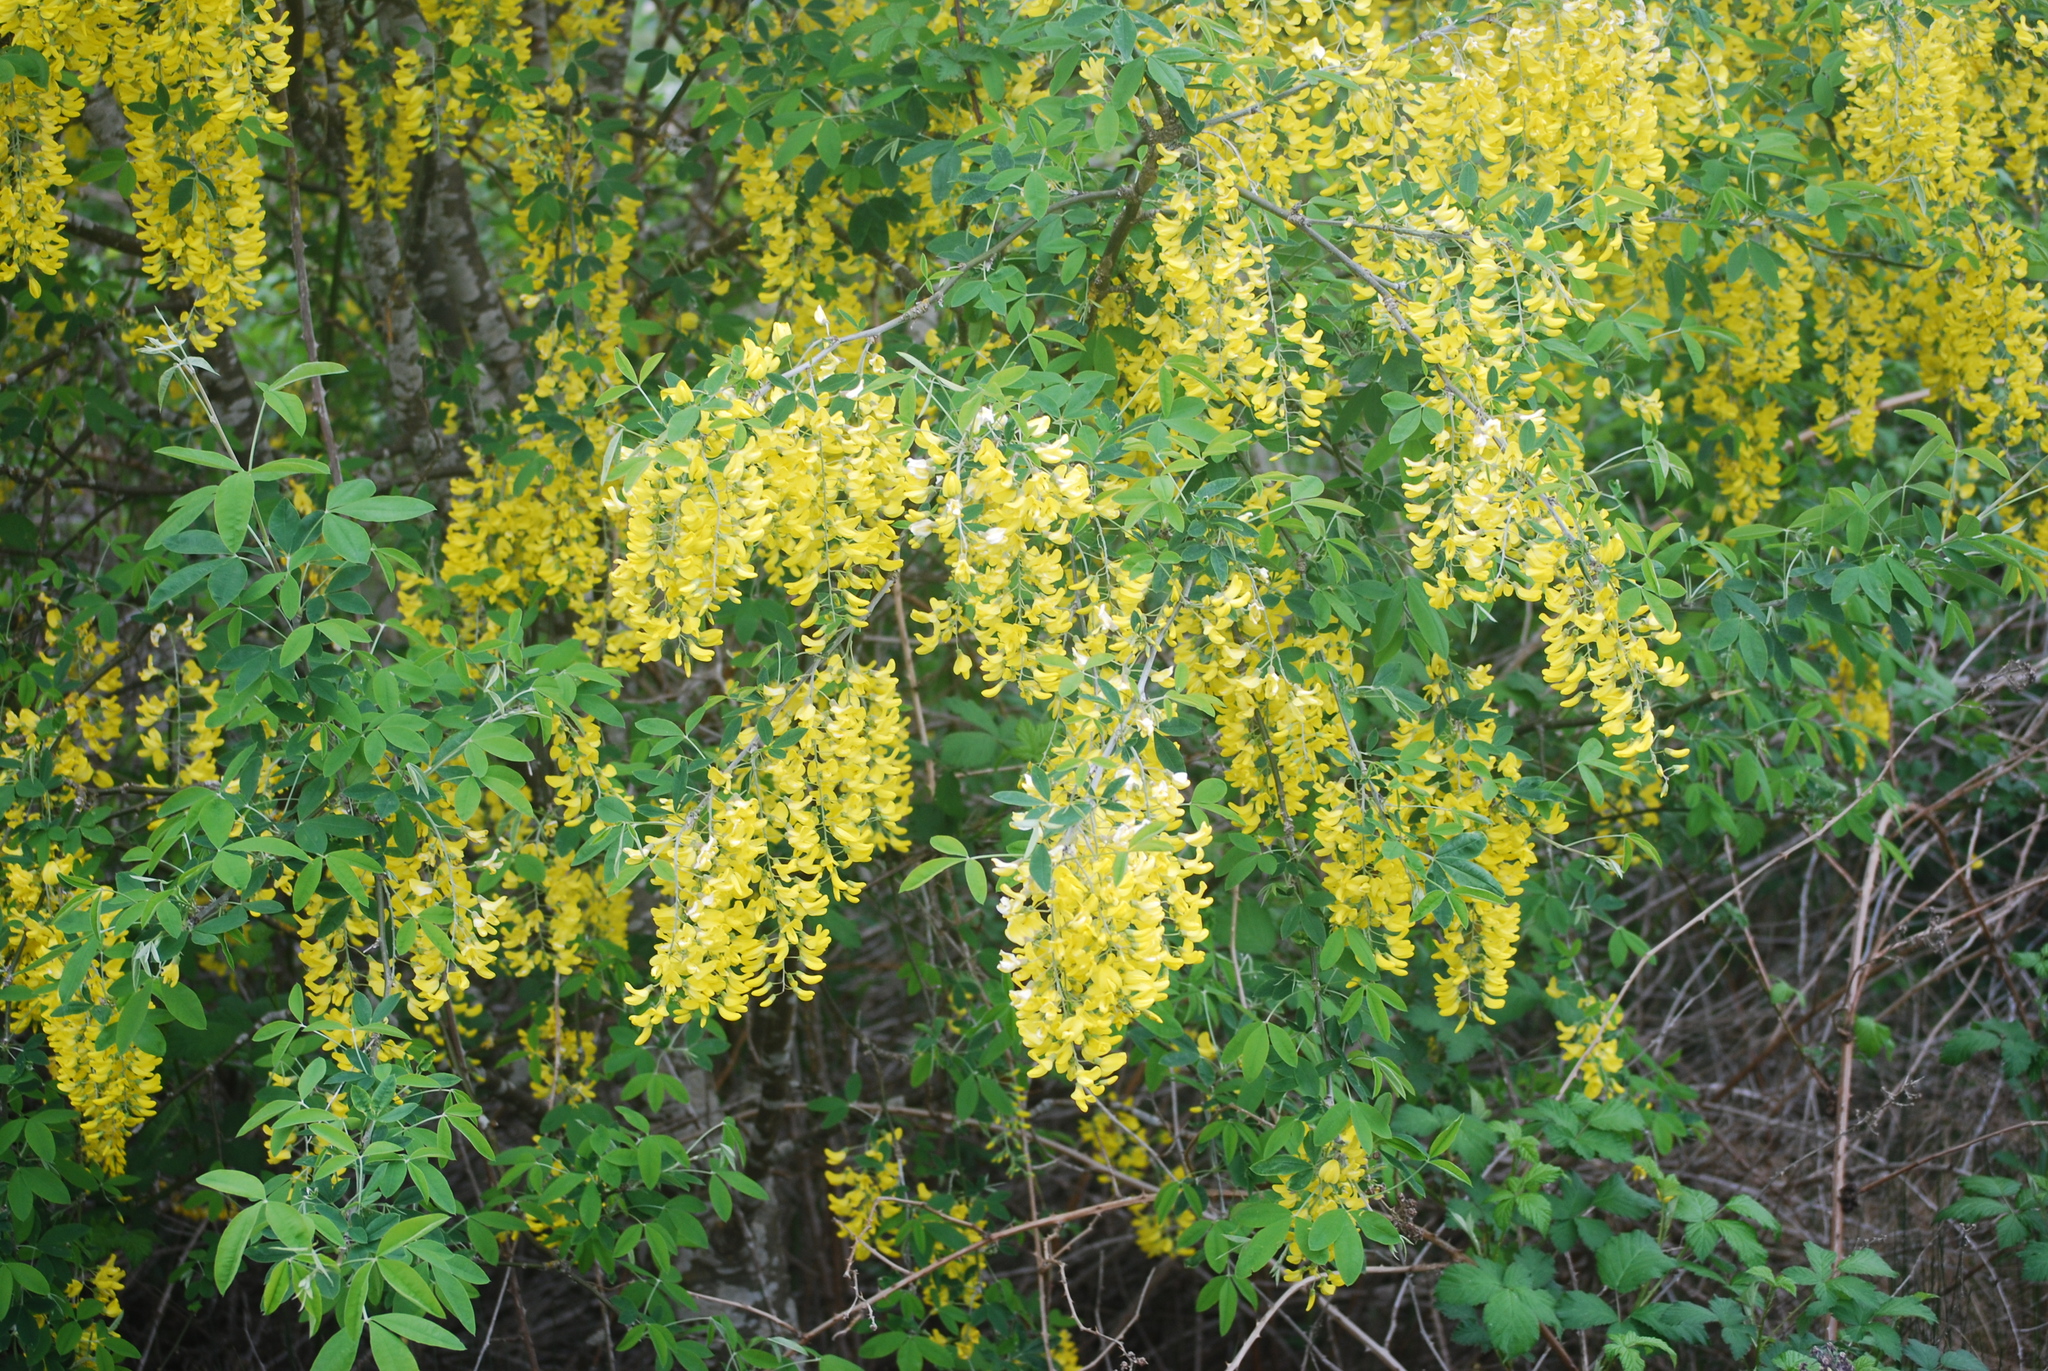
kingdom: Plantae
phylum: Tracheophyta
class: Magnoliopsida
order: Fabales
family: Fabaceae
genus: Laburnum
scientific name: Laburnum anagyroides
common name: Laburnum
